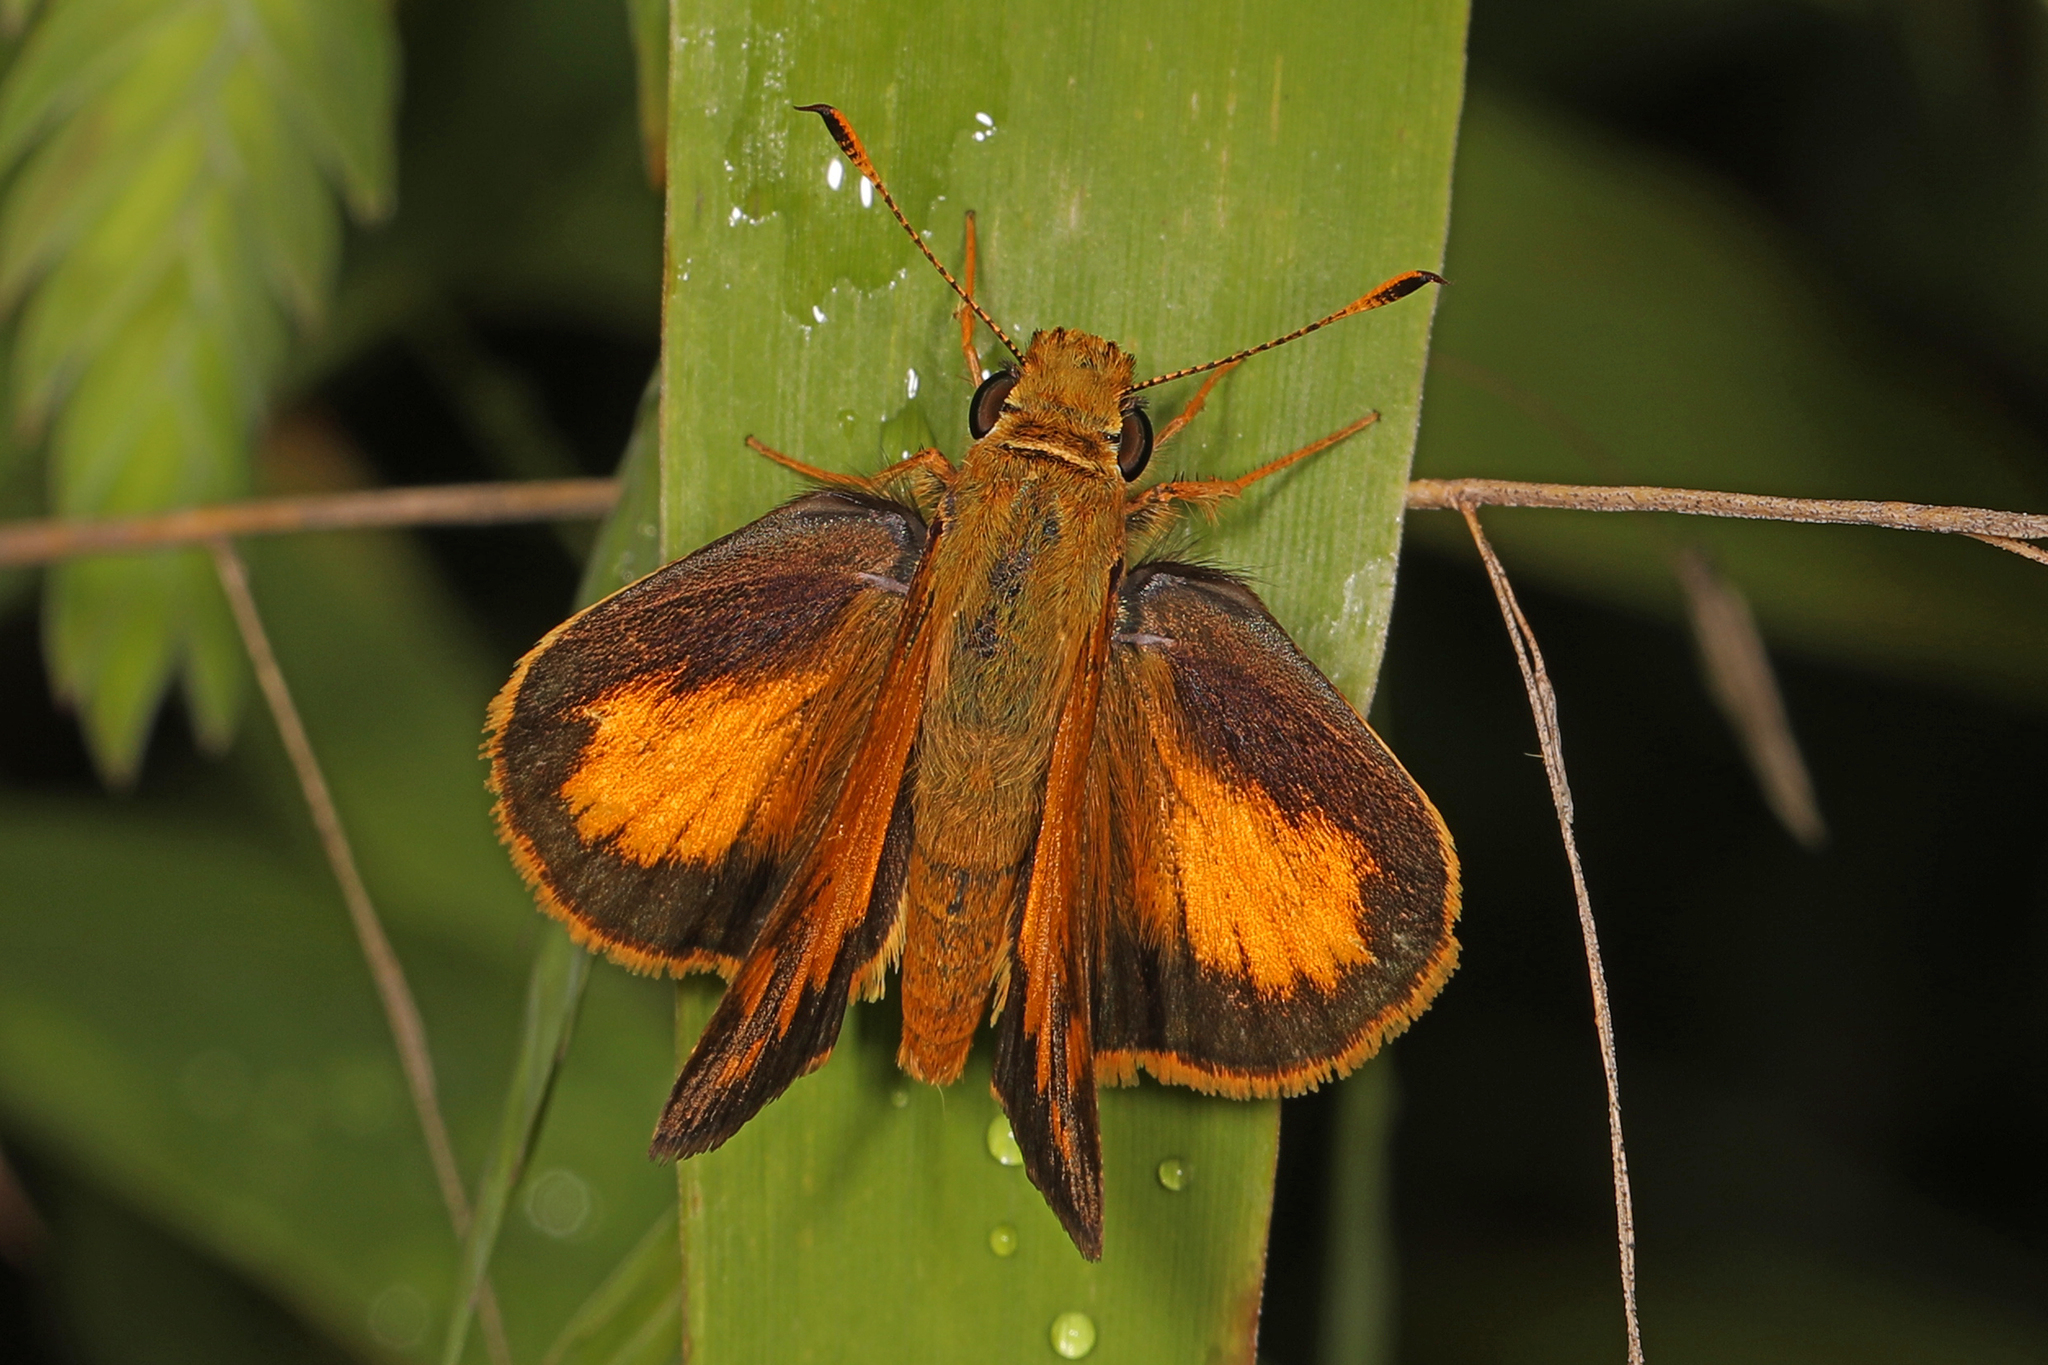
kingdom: Animalia
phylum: Arthropoda
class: Insecta
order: Lepidoptera
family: Hesperiidae
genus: Lon
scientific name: Lon zabulon
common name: Zabulon skipper
